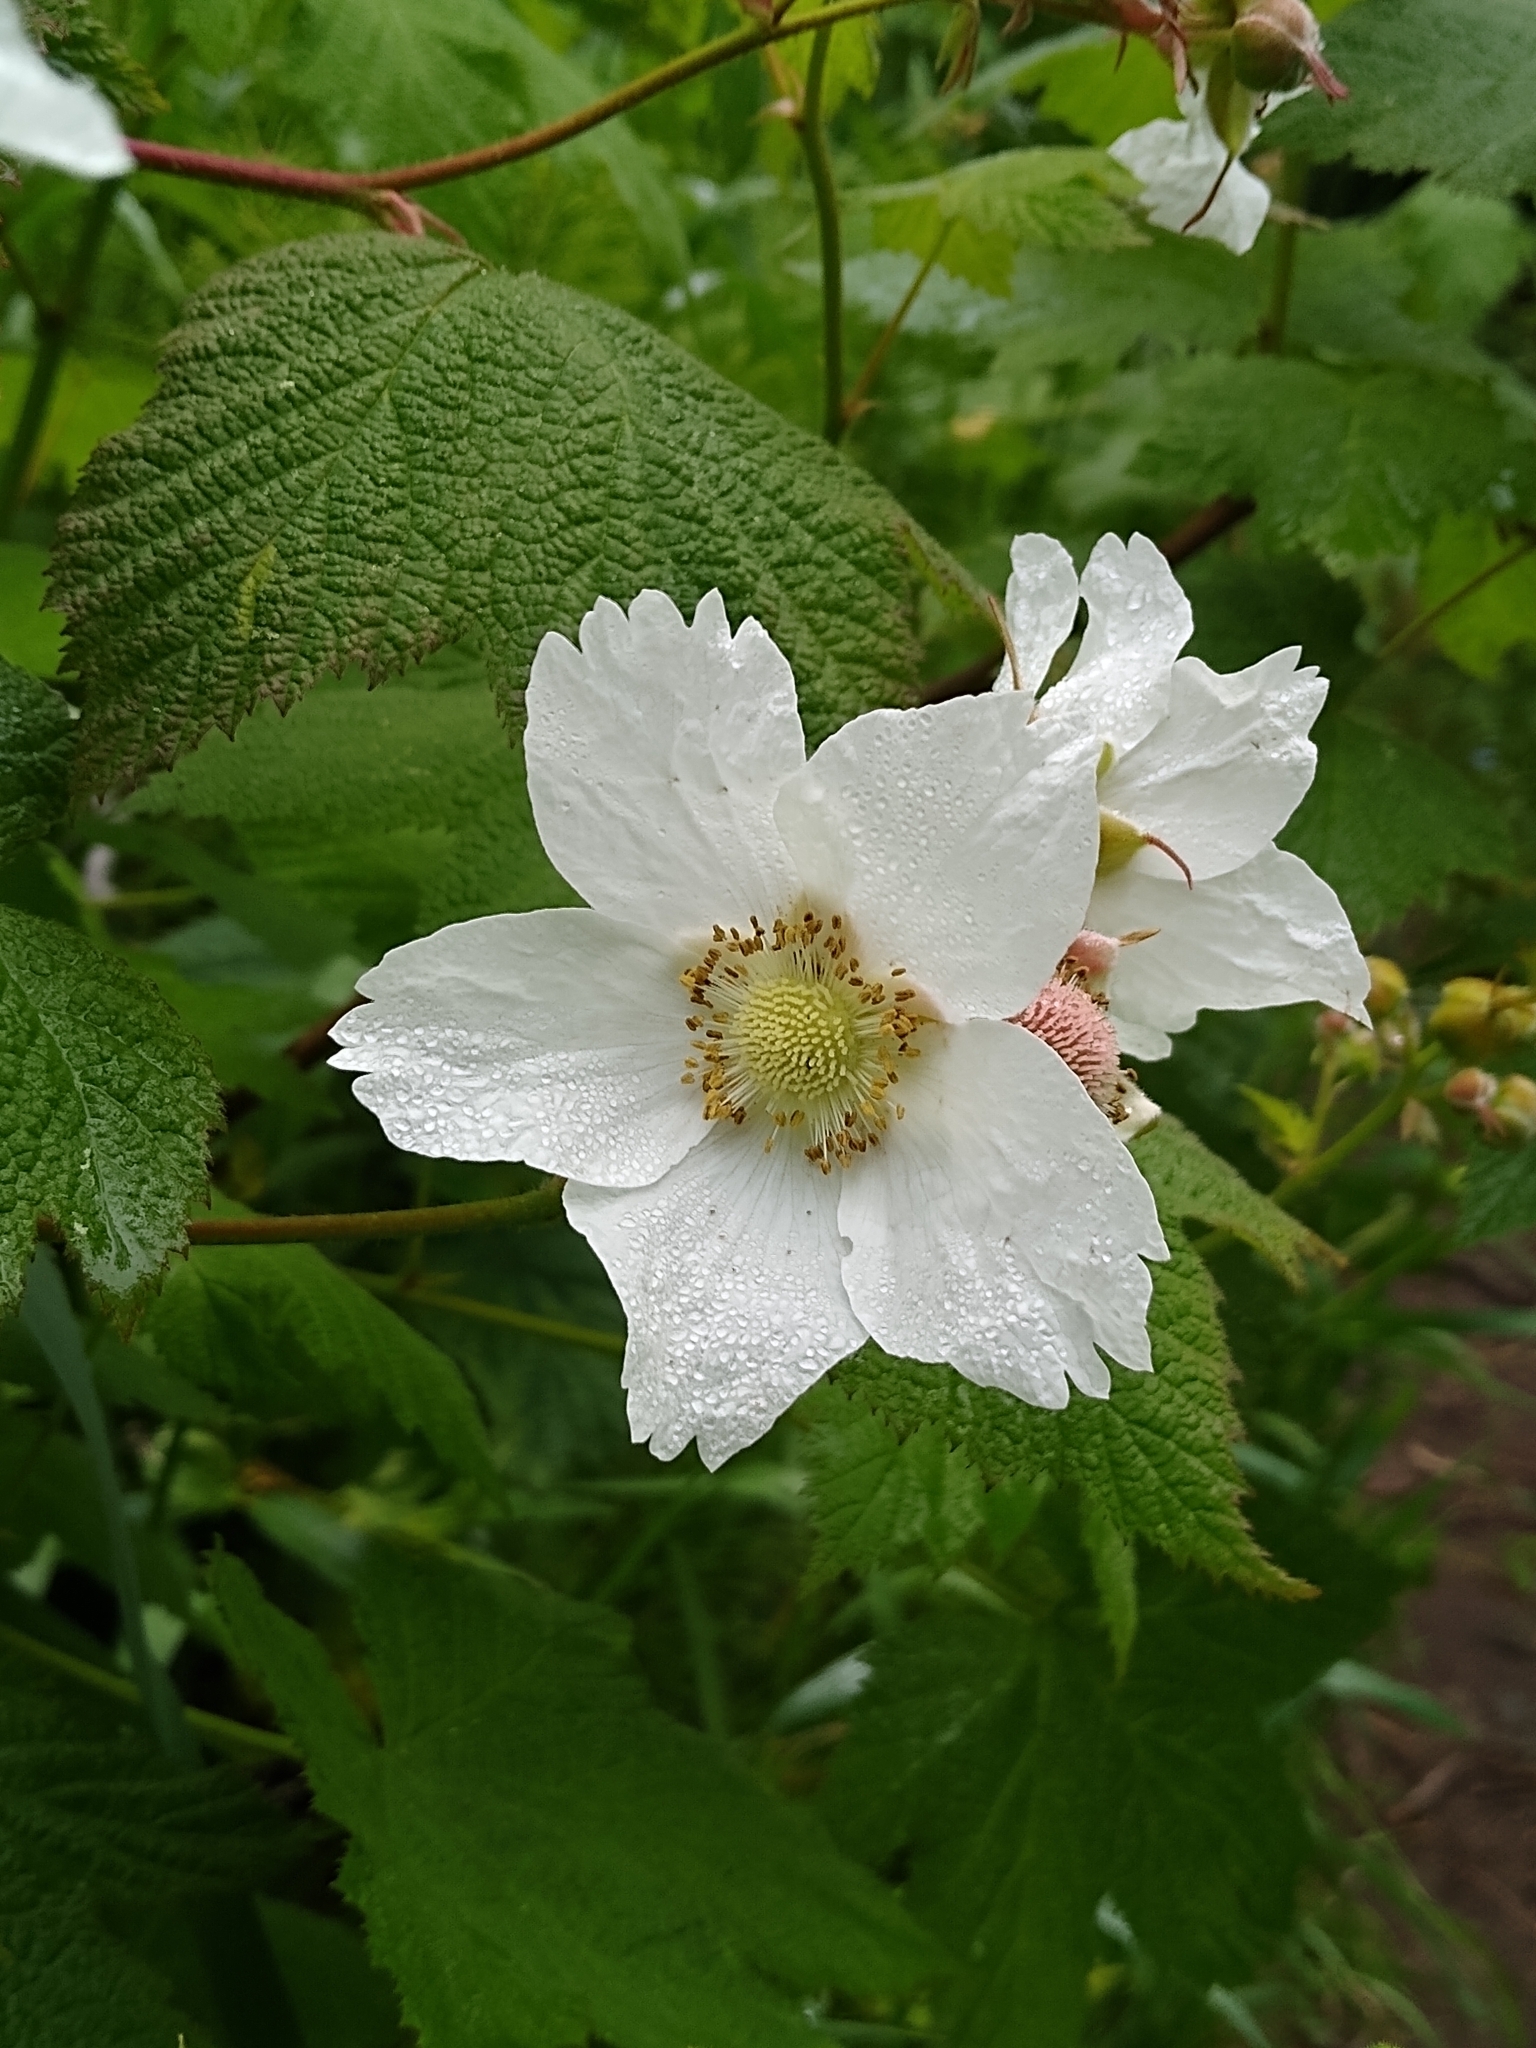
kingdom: Plantae
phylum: Tracheophyta
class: Magnoliopsida
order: Rosales
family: Rosaceae
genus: Rubus
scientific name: Rubus parviflorus
